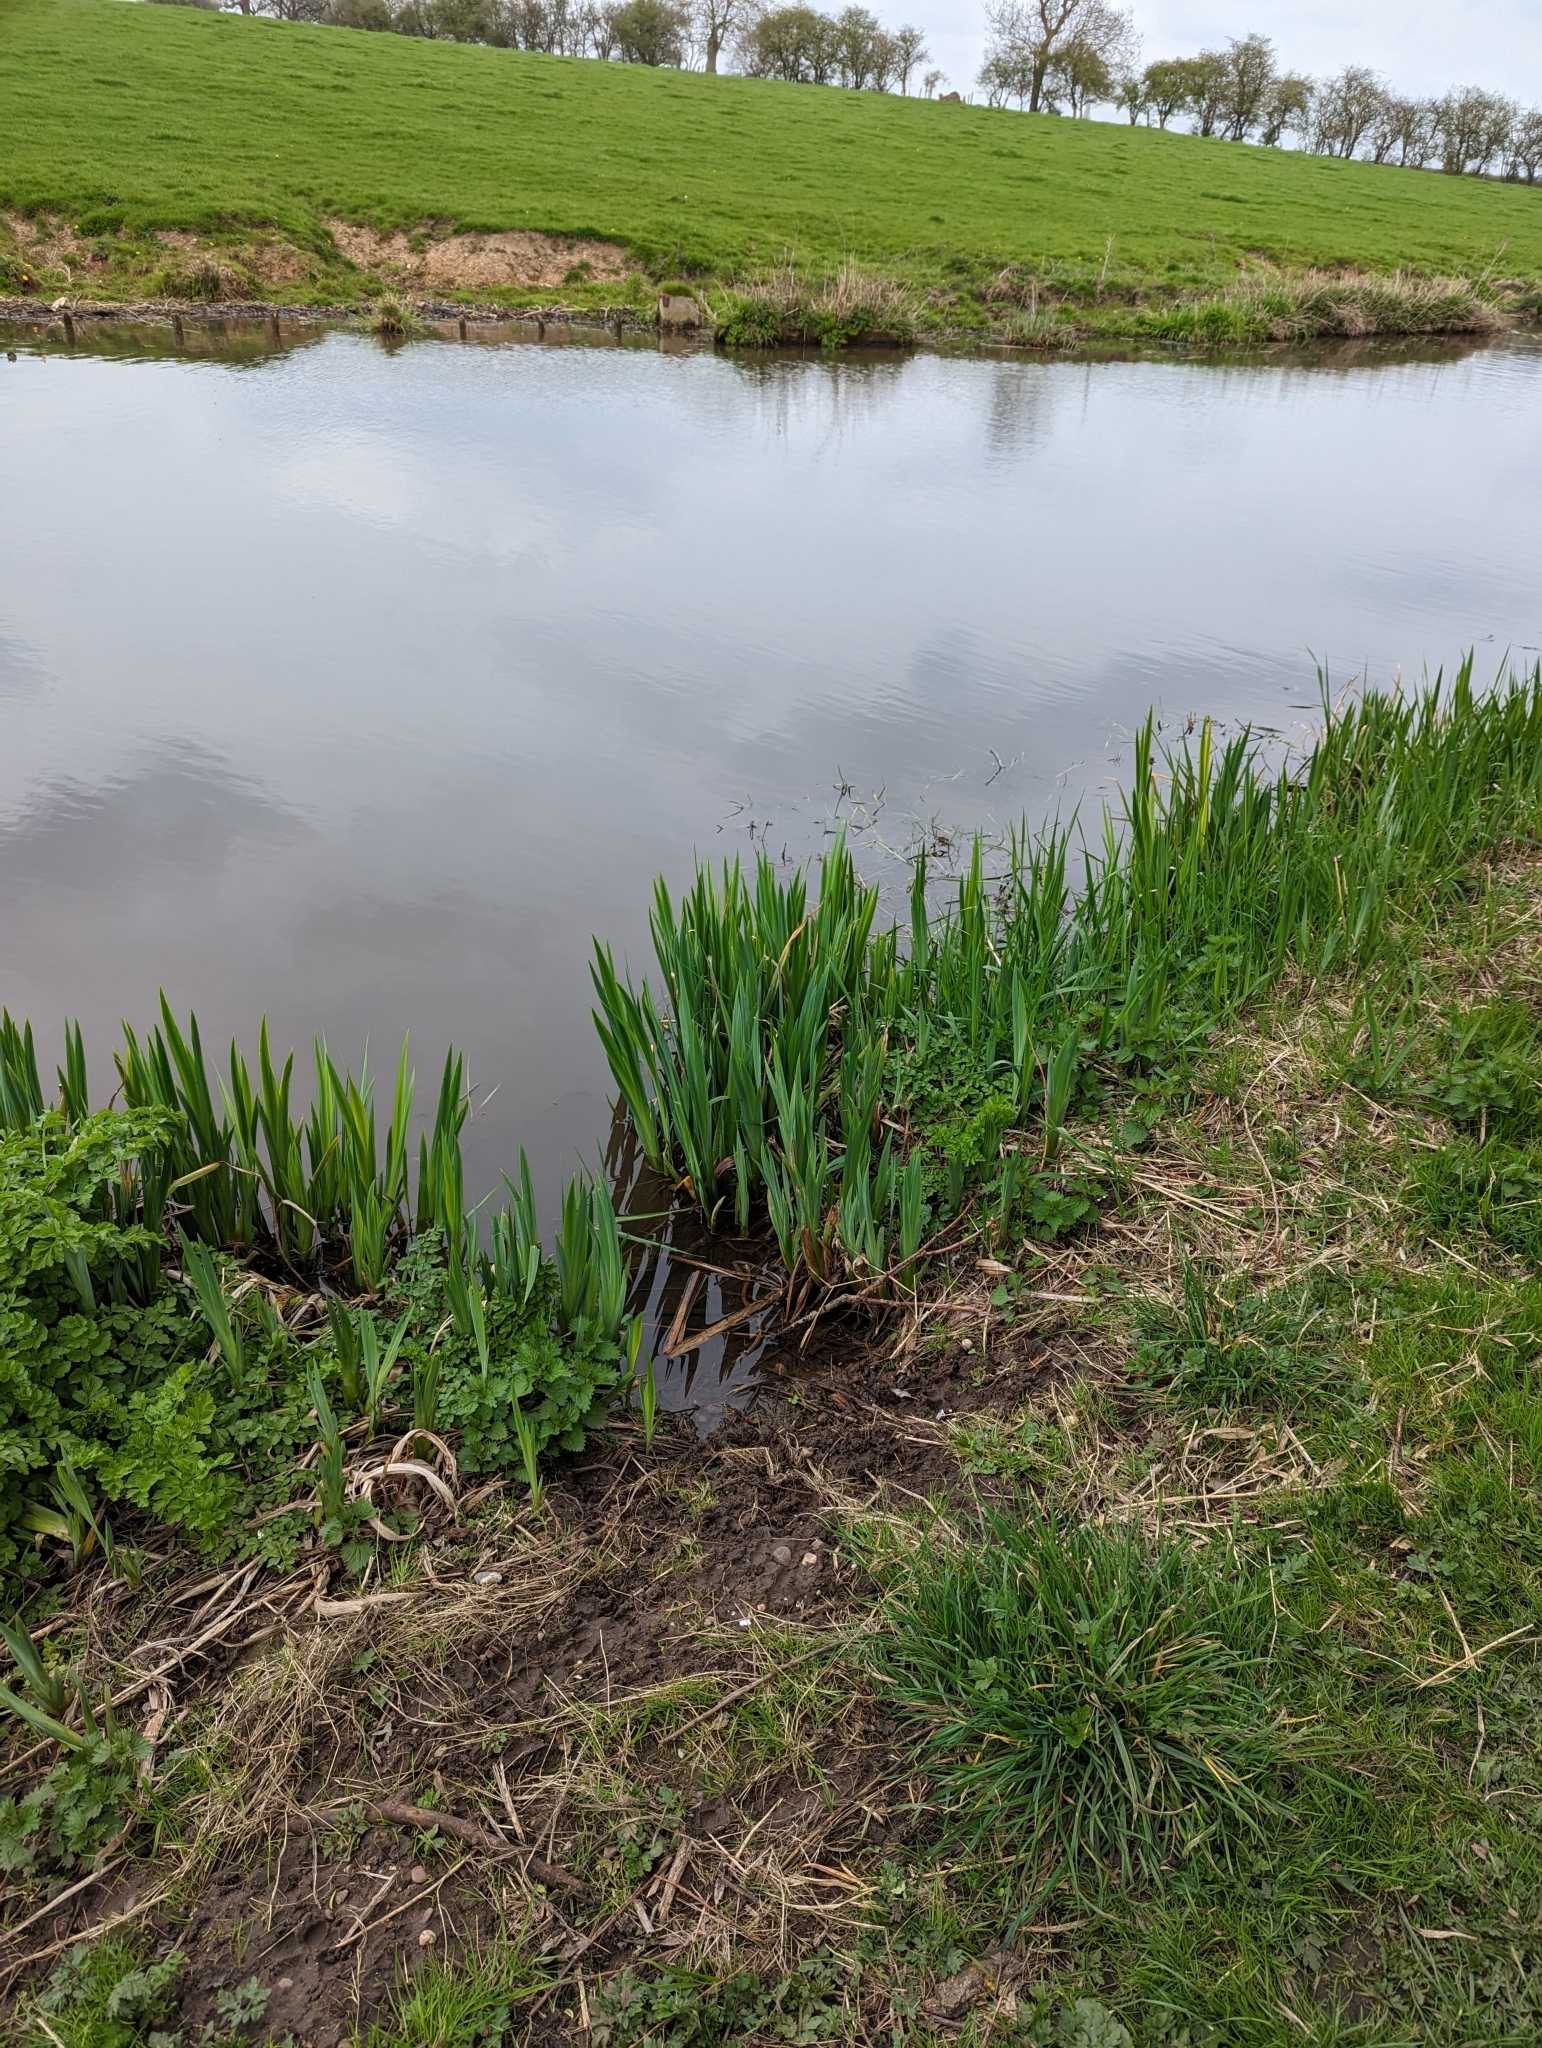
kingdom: Plantae
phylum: Tracheophyta
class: Liliopsida
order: Asparagales
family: Iridaceae
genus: Iris
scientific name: Iris pseudacorus
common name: Yellow flag
